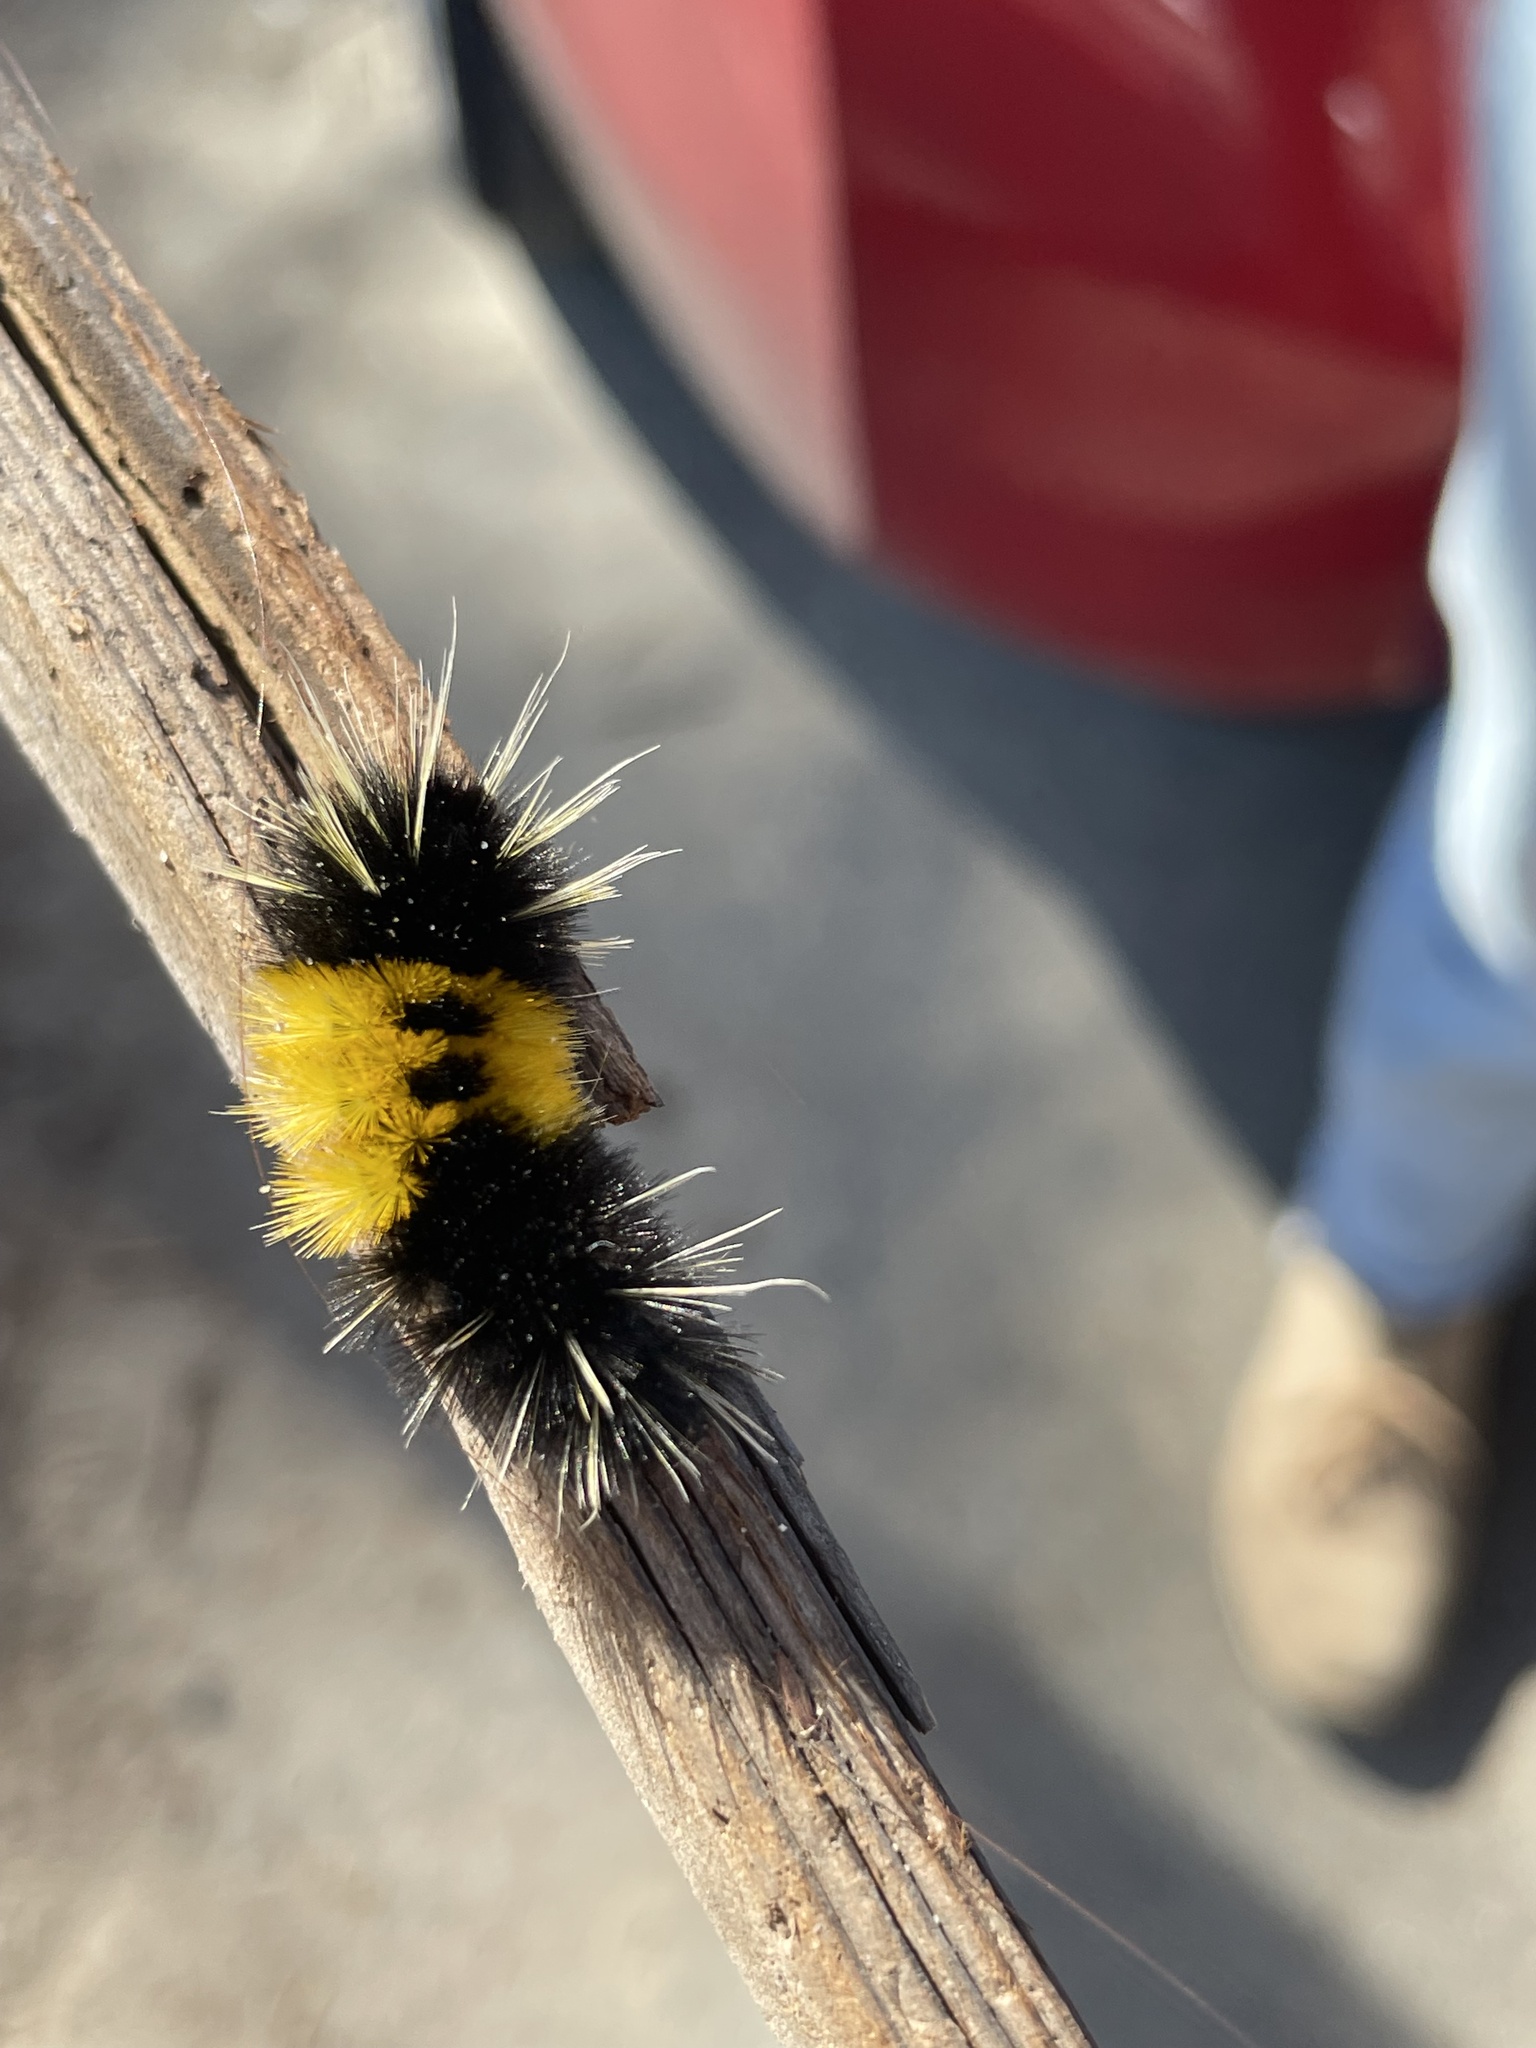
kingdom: Animalia
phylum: Arthropoda
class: Insecta
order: Lepidoptera
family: Erebidae
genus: Lophocampa
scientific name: Lophocampa maculata
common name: Spotted tussock moth
